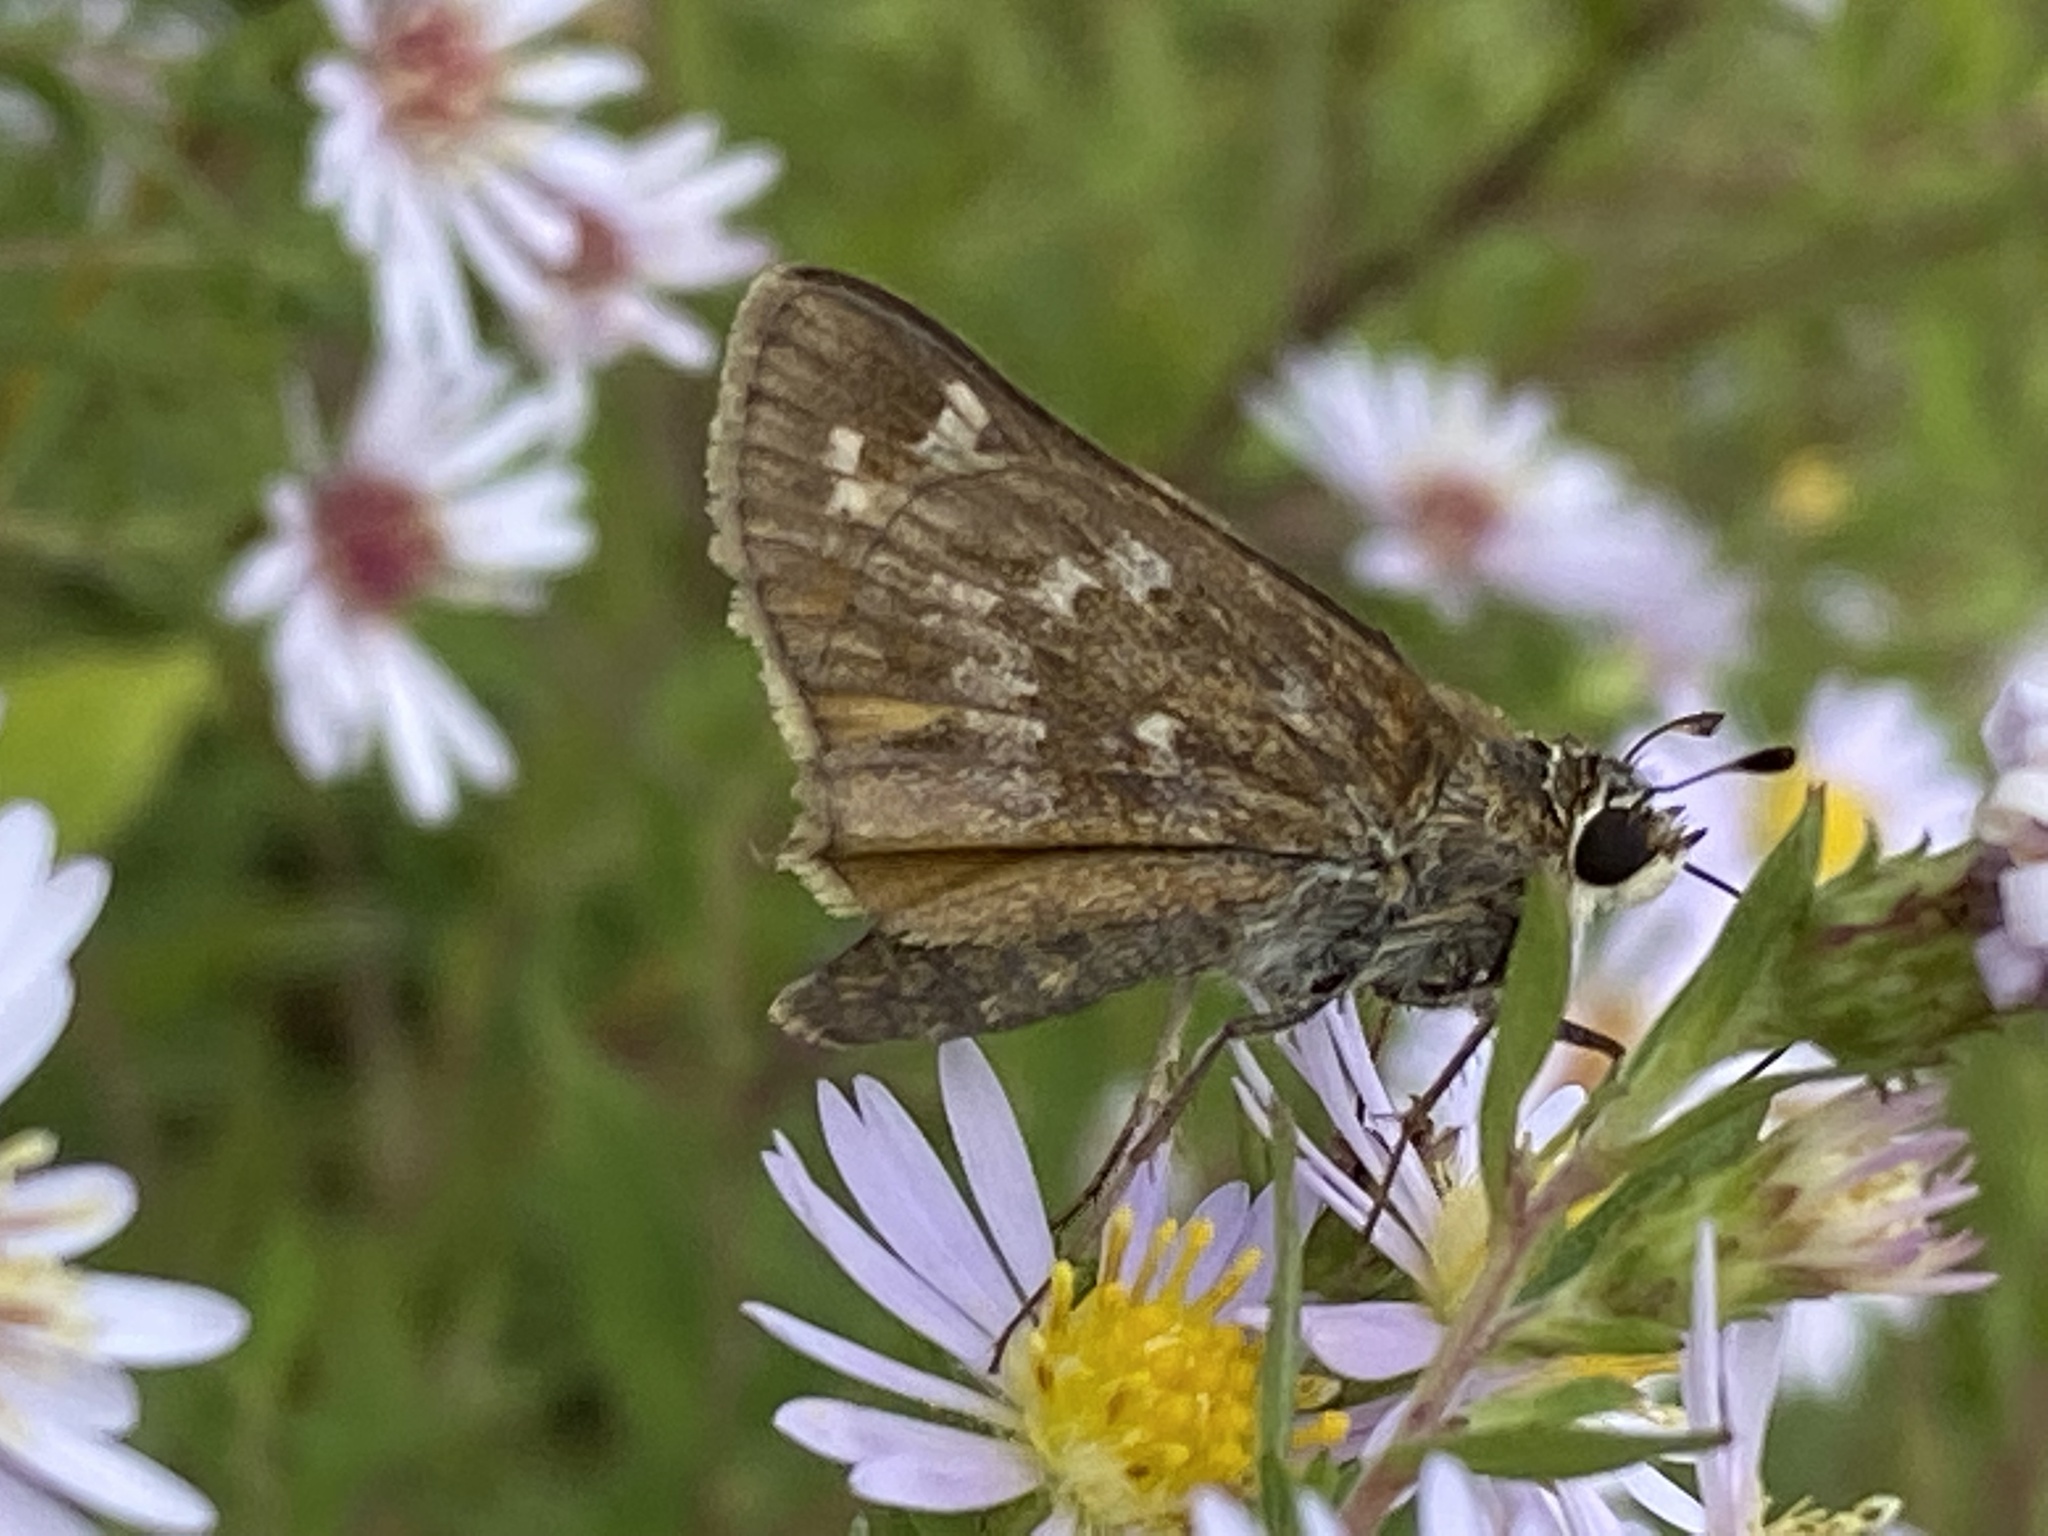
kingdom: Animalia
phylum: Arthropoda
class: Insecta
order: Lepidoptera
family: Hesperiidae
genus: Atalopedes
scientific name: Atalopedes
